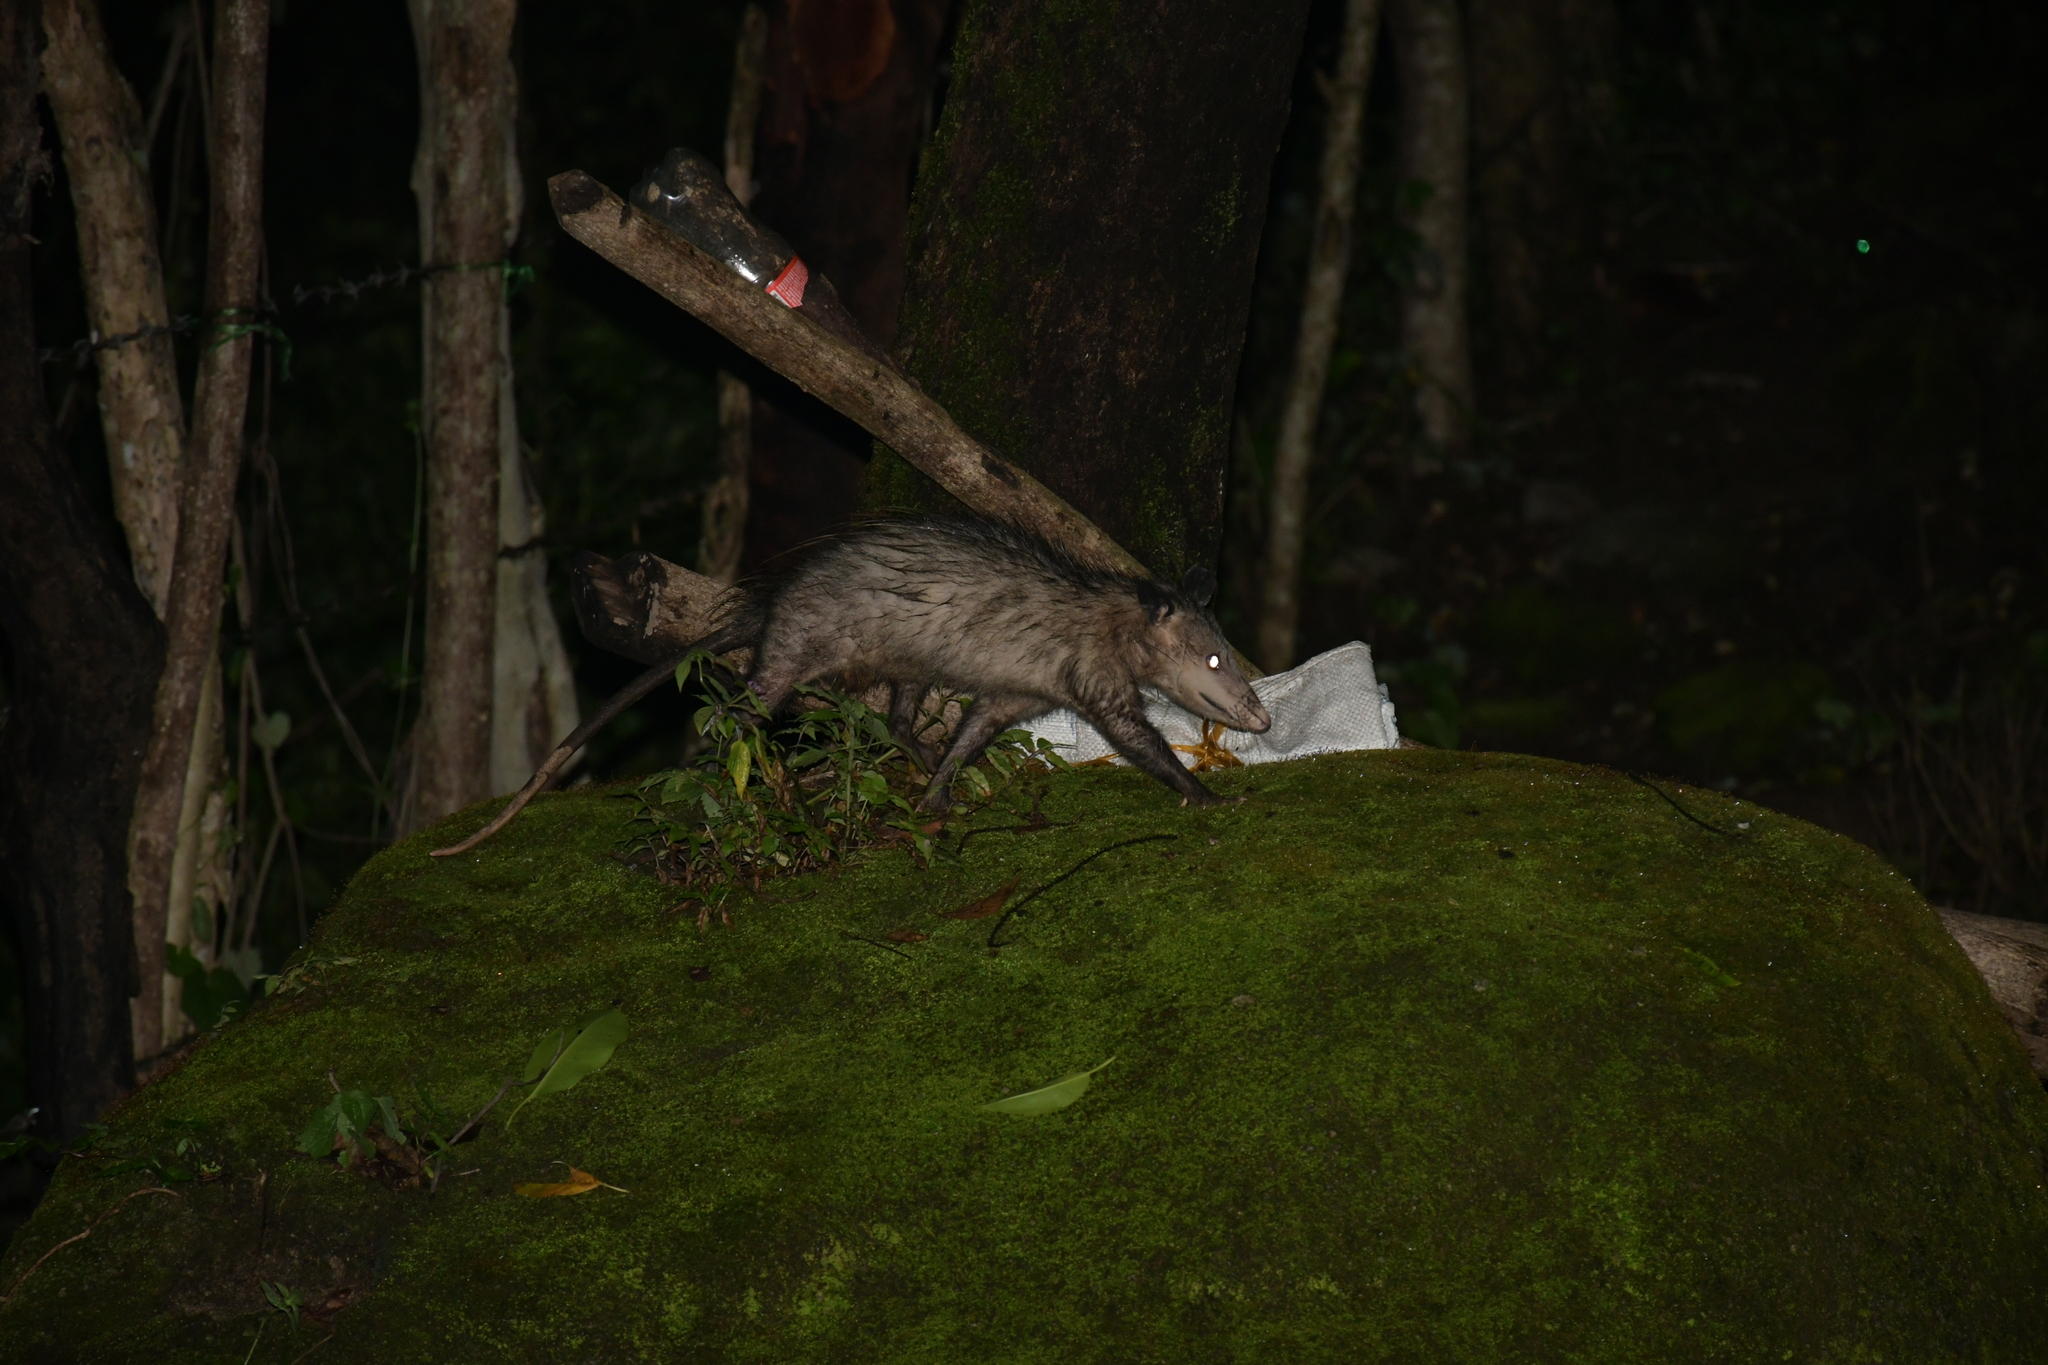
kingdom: Animalia
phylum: Chordata
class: Mammalia
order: Didelphimorphia
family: Didelphidae
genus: Didelphis
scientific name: Didelphis virginiana
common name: Virginia opossum
